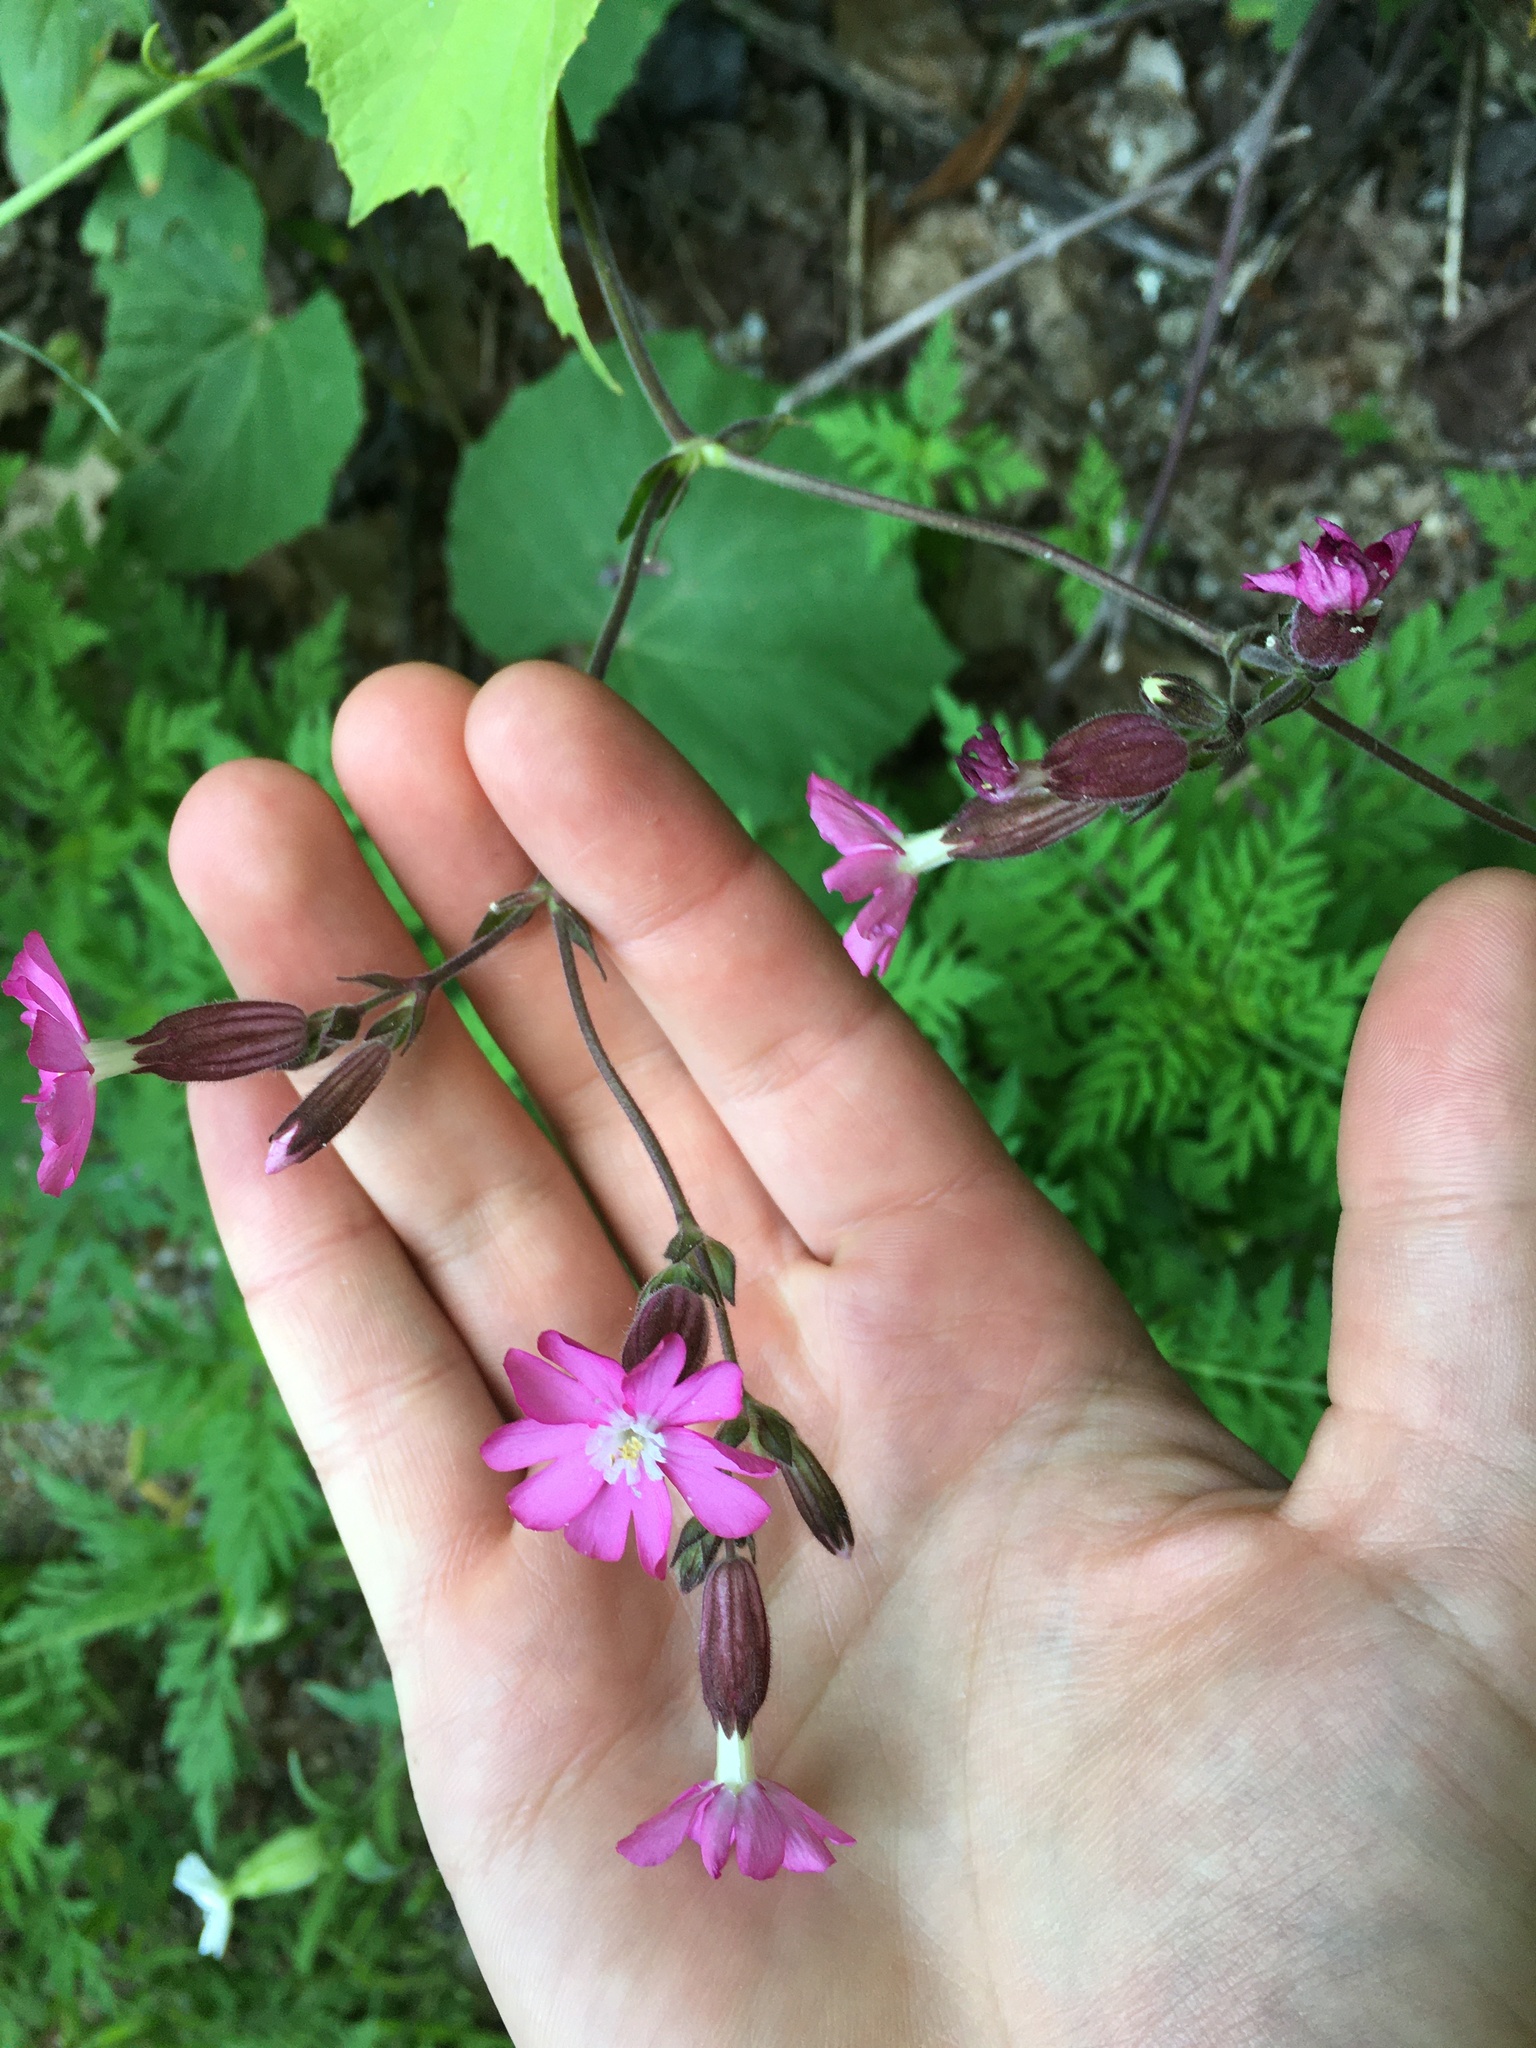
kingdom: Plantae
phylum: Tracheophyta
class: Magnoliopsida
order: Caryophyllales
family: Caryophyllaceae
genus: Silene
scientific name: Silene dioica
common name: Red campion
